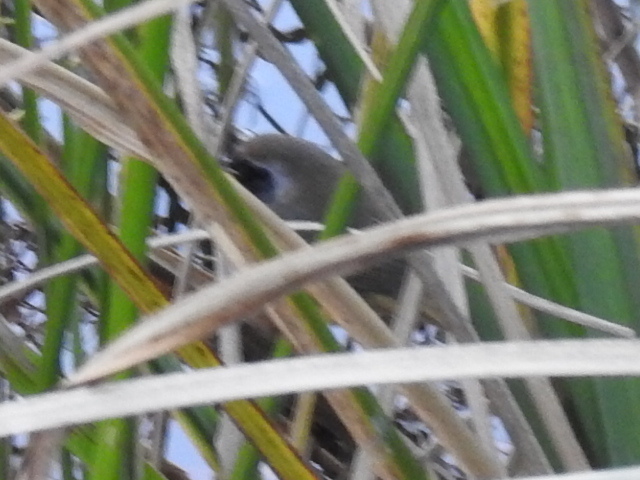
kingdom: Animalia
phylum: Chordata
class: Aves
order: Passeriformes
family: Parulidae
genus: Geothlypis
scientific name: Geothlypis trichas
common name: Common yellowthroat
